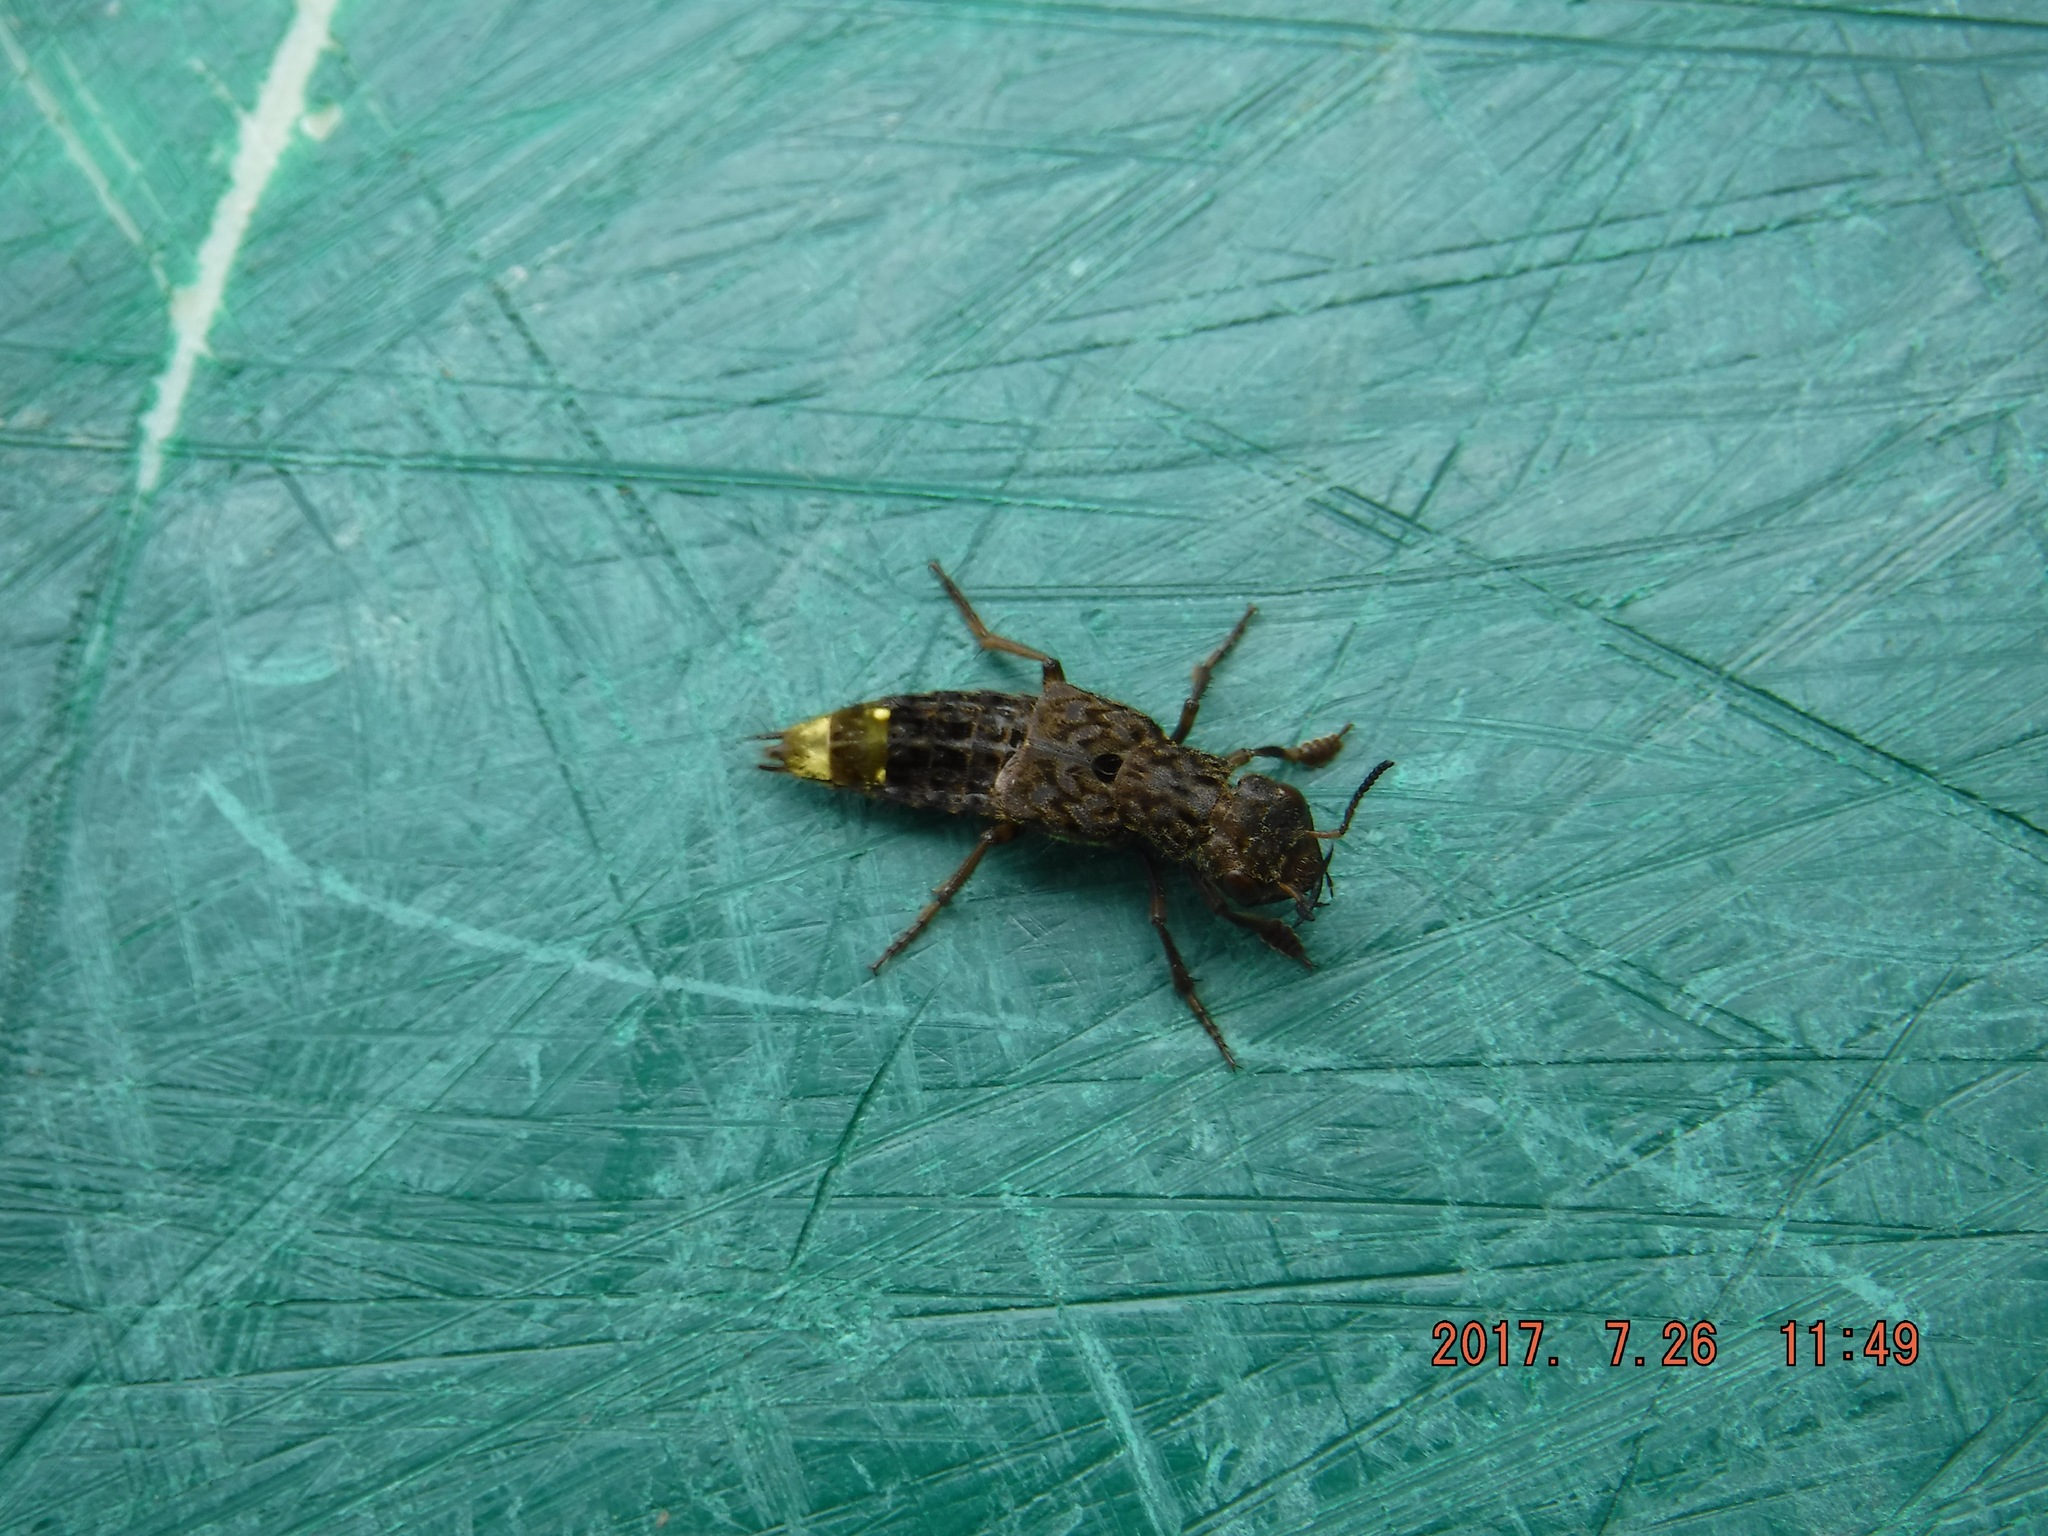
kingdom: Animalia
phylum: Arthropoda
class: Insecta
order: Coleoptera
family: Staphylinidae
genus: Ontholestes
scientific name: Ontholestes cingulatus
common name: Gold-and-brown rove beetle
